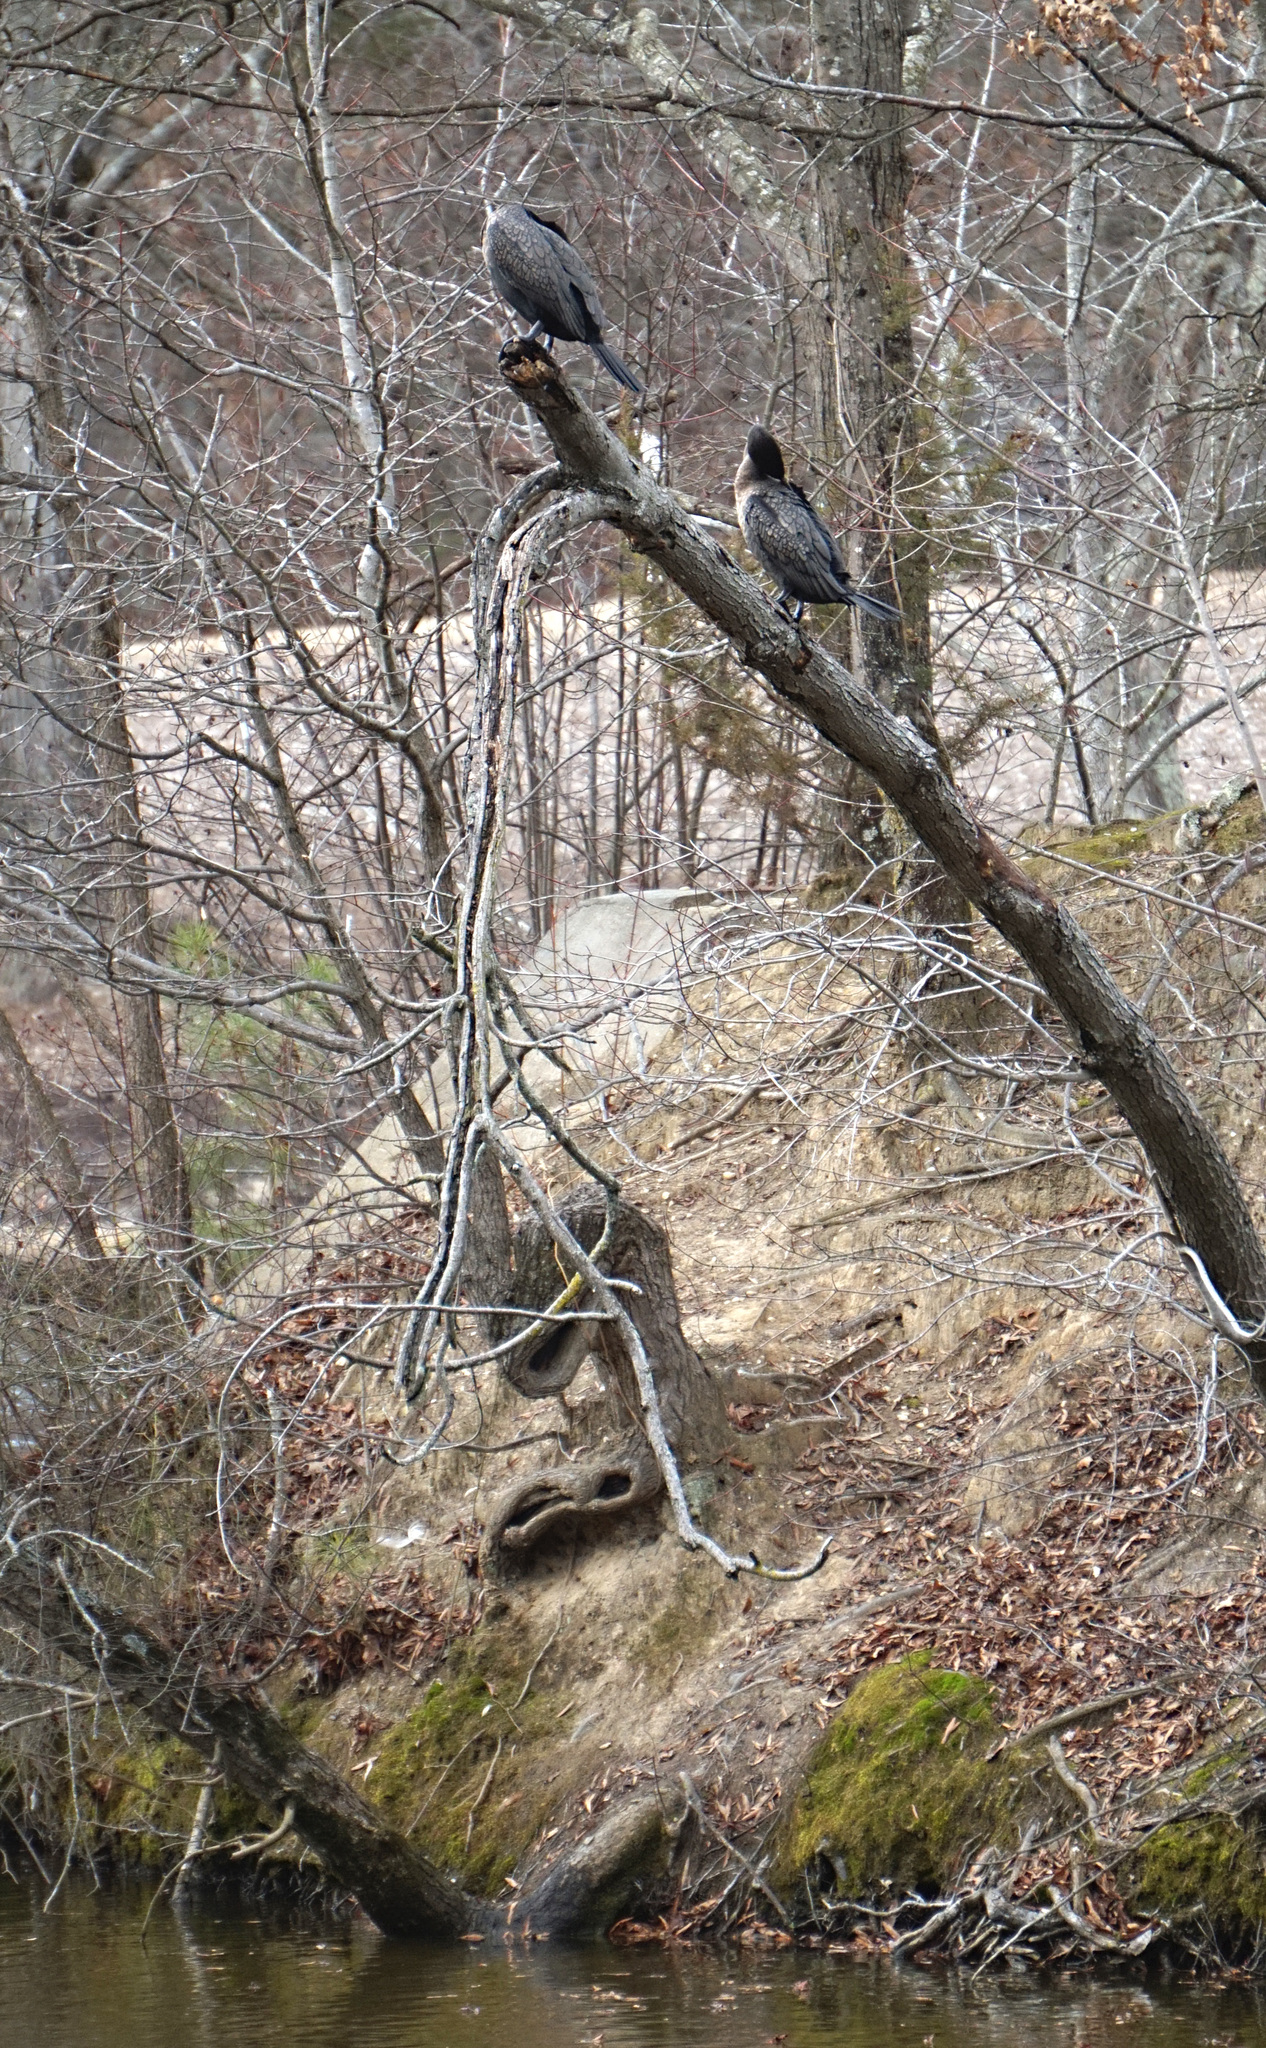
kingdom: Animalia
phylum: Chordata
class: Aves
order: Suliformes
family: Phalacrocoracidae
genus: Phalacrocorax
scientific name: Phalacrocorax auritus
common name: Double-crested cormorant
